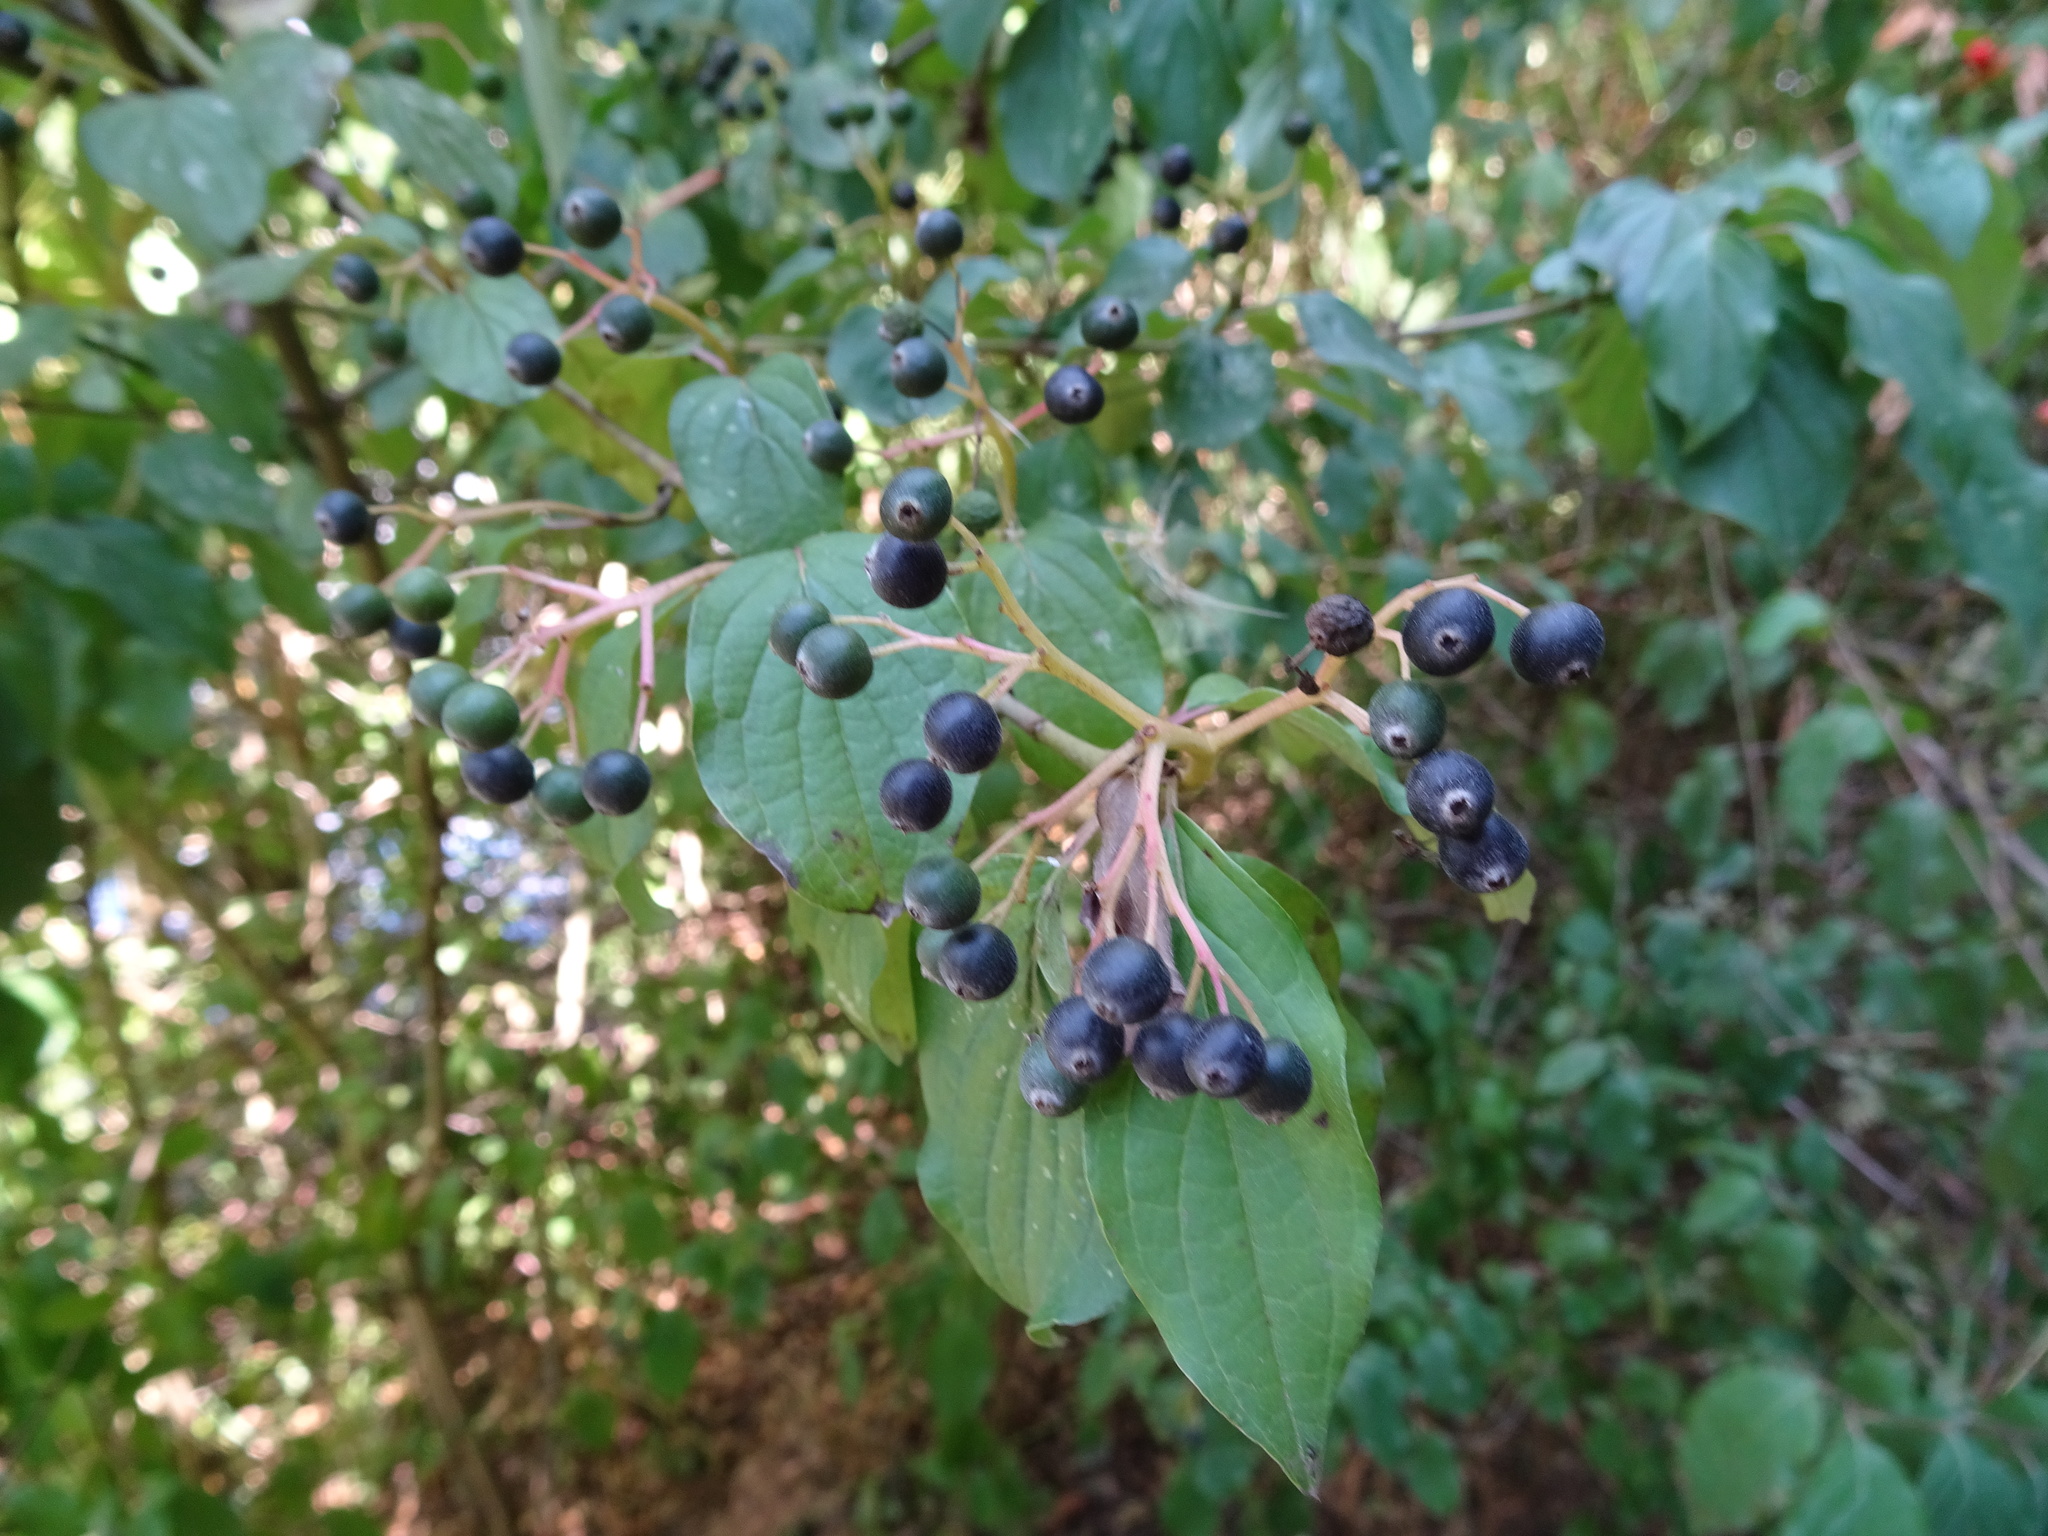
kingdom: Plantae
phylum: Tracheophyta
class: Magnoliopsida
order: Cornales
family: Cornaceae
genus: Cornus
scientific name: Cornus sanguinea
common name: Dogwood
